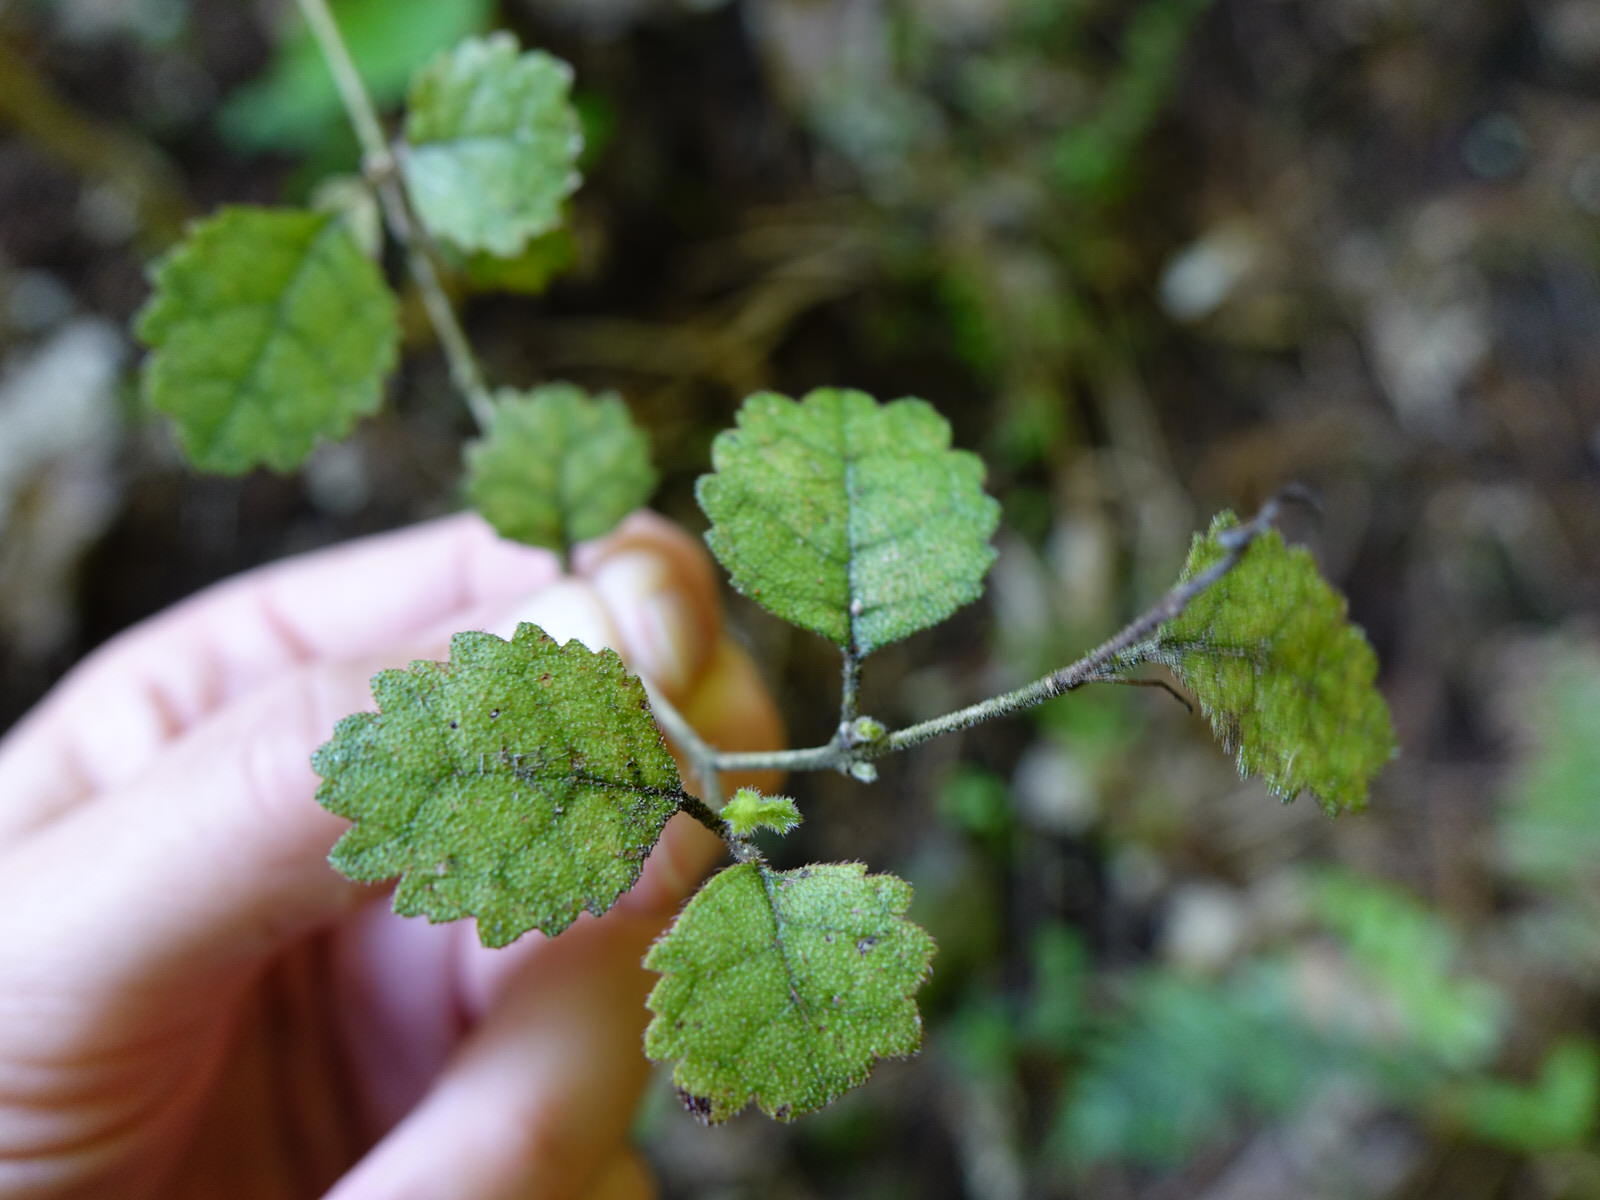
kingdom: Plantae
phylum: Tracheophyta
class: Magnoliopsida
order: Lamiales
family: Gesneriaceae
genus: Rhabdothamnus
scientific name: Rhabdothamnus solandri
